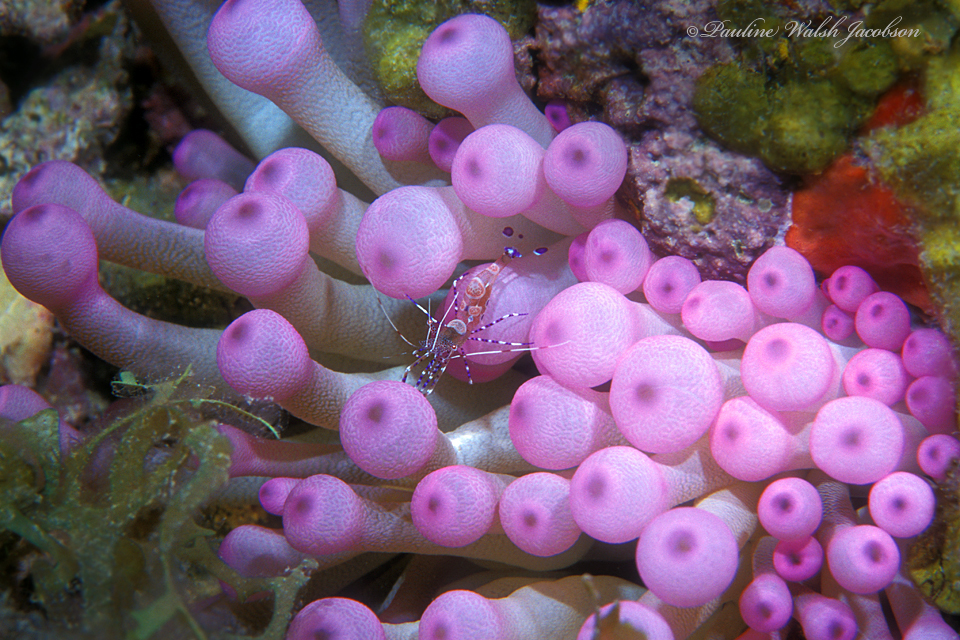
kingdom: Animalia
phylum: Arthropoda
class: Malacostraca
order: Decapoda
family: Palaemonidae
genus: Periclimenes
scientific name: Periclimenes yucatanicus
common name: Spotted cleaning shrimp
